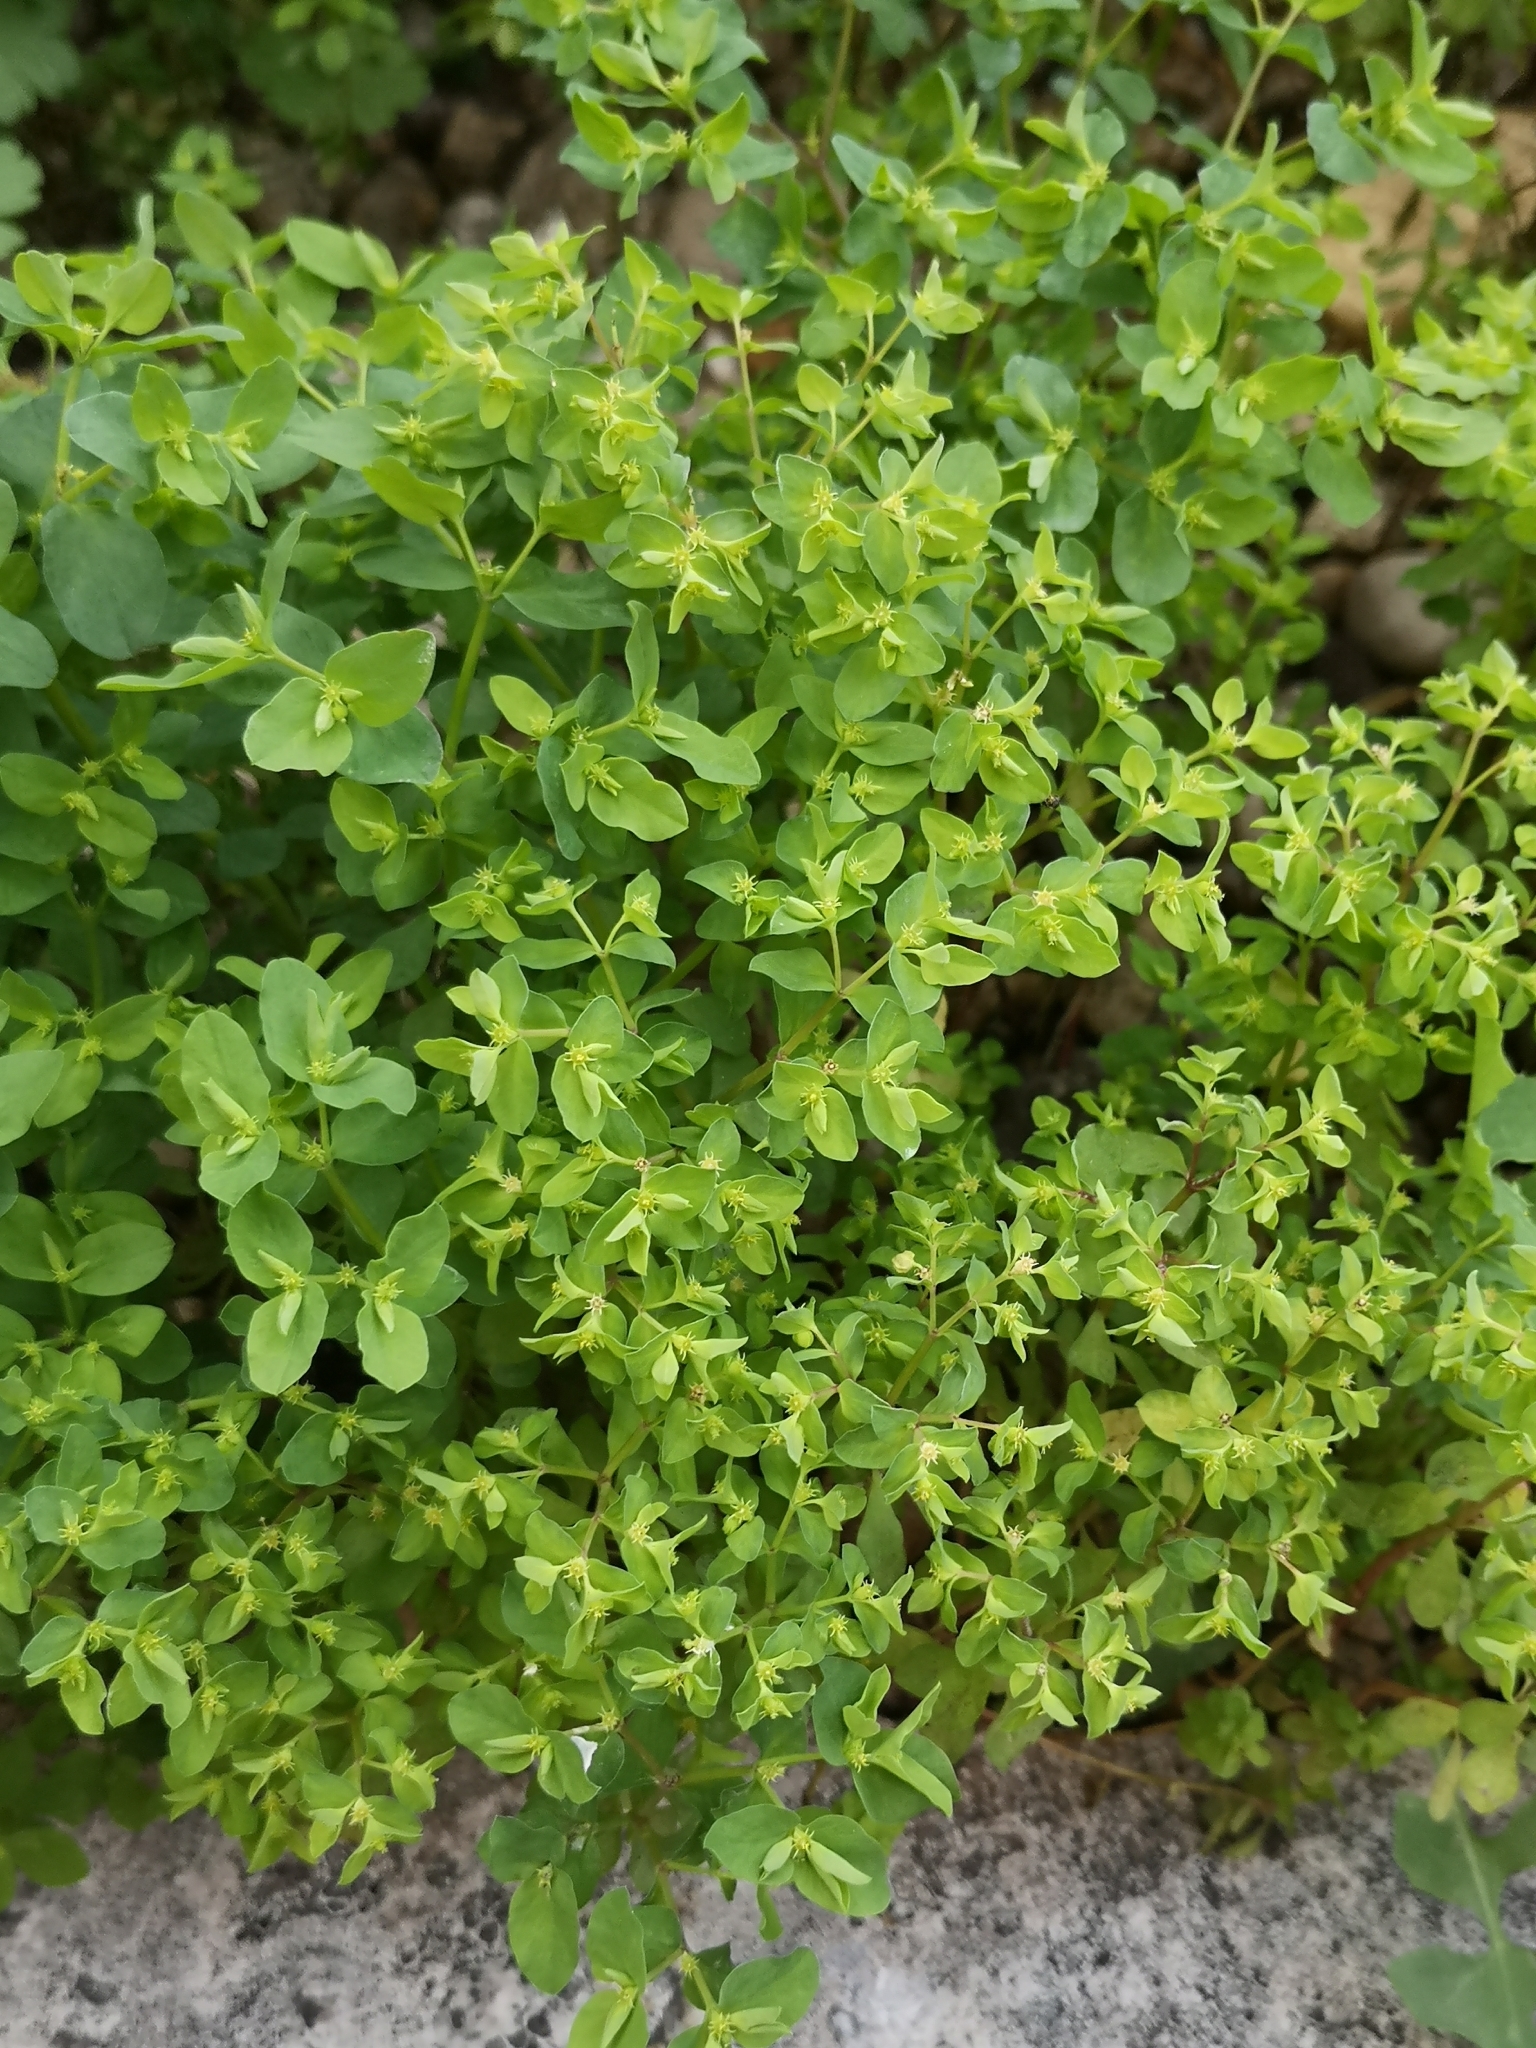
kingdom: Plantae
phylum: Tracheophyta
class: Magnoliopsida
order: Malpighiales
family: Euphorbiaceae
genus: Euphorbia
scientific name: Euphorbia peplus
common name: Petty spurge
